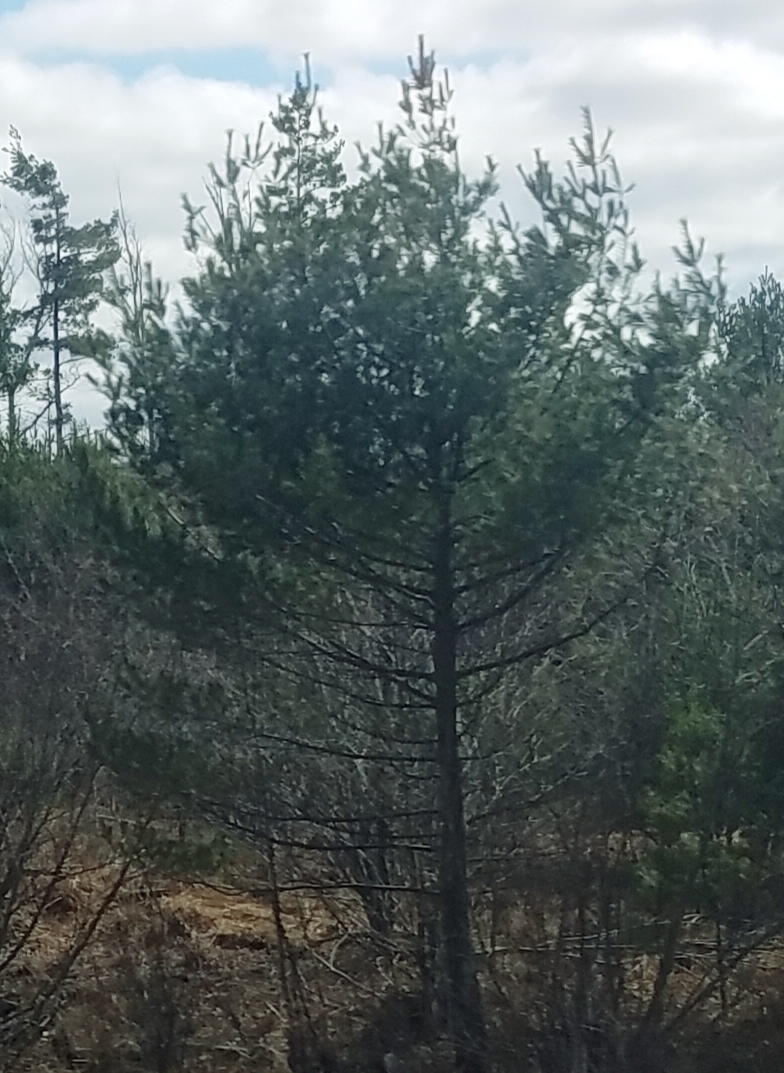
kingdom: Plantae
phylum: Tracheophyta
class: Pinopsida
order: Pinales
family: Pinaceae
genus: Pinus
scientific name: Pinus strobus
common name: Weymouth pine
